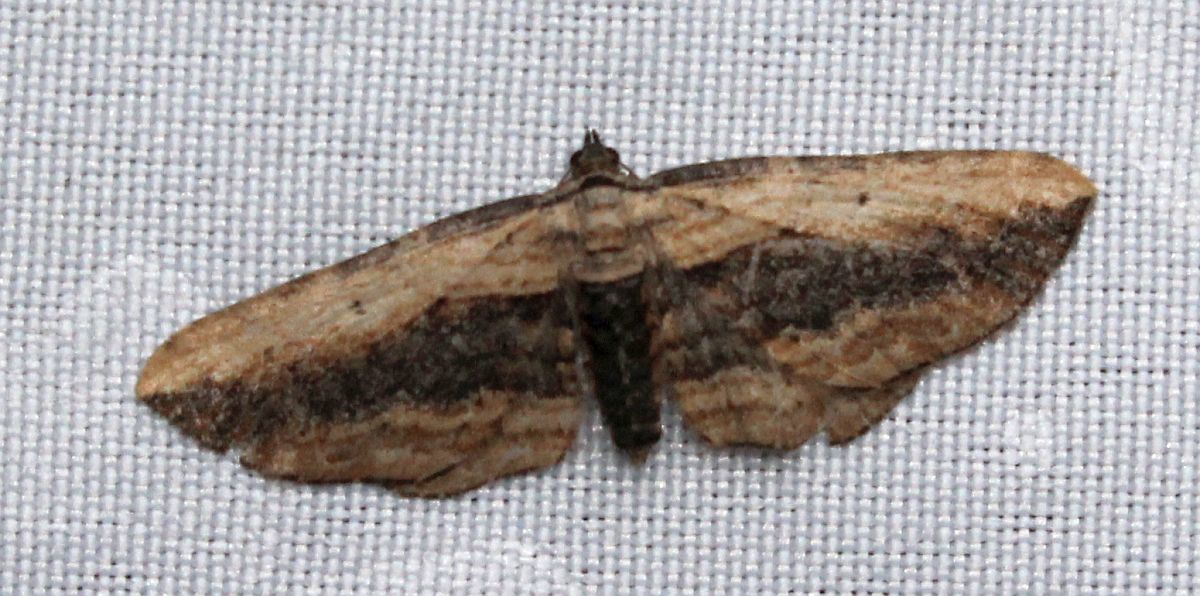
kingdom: Animalia
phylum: Arthropoda
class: Insecta
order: Lepidoptera
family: Geometridae
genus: Horisme
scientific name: Horisme vitalbata
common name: Small waved umber
